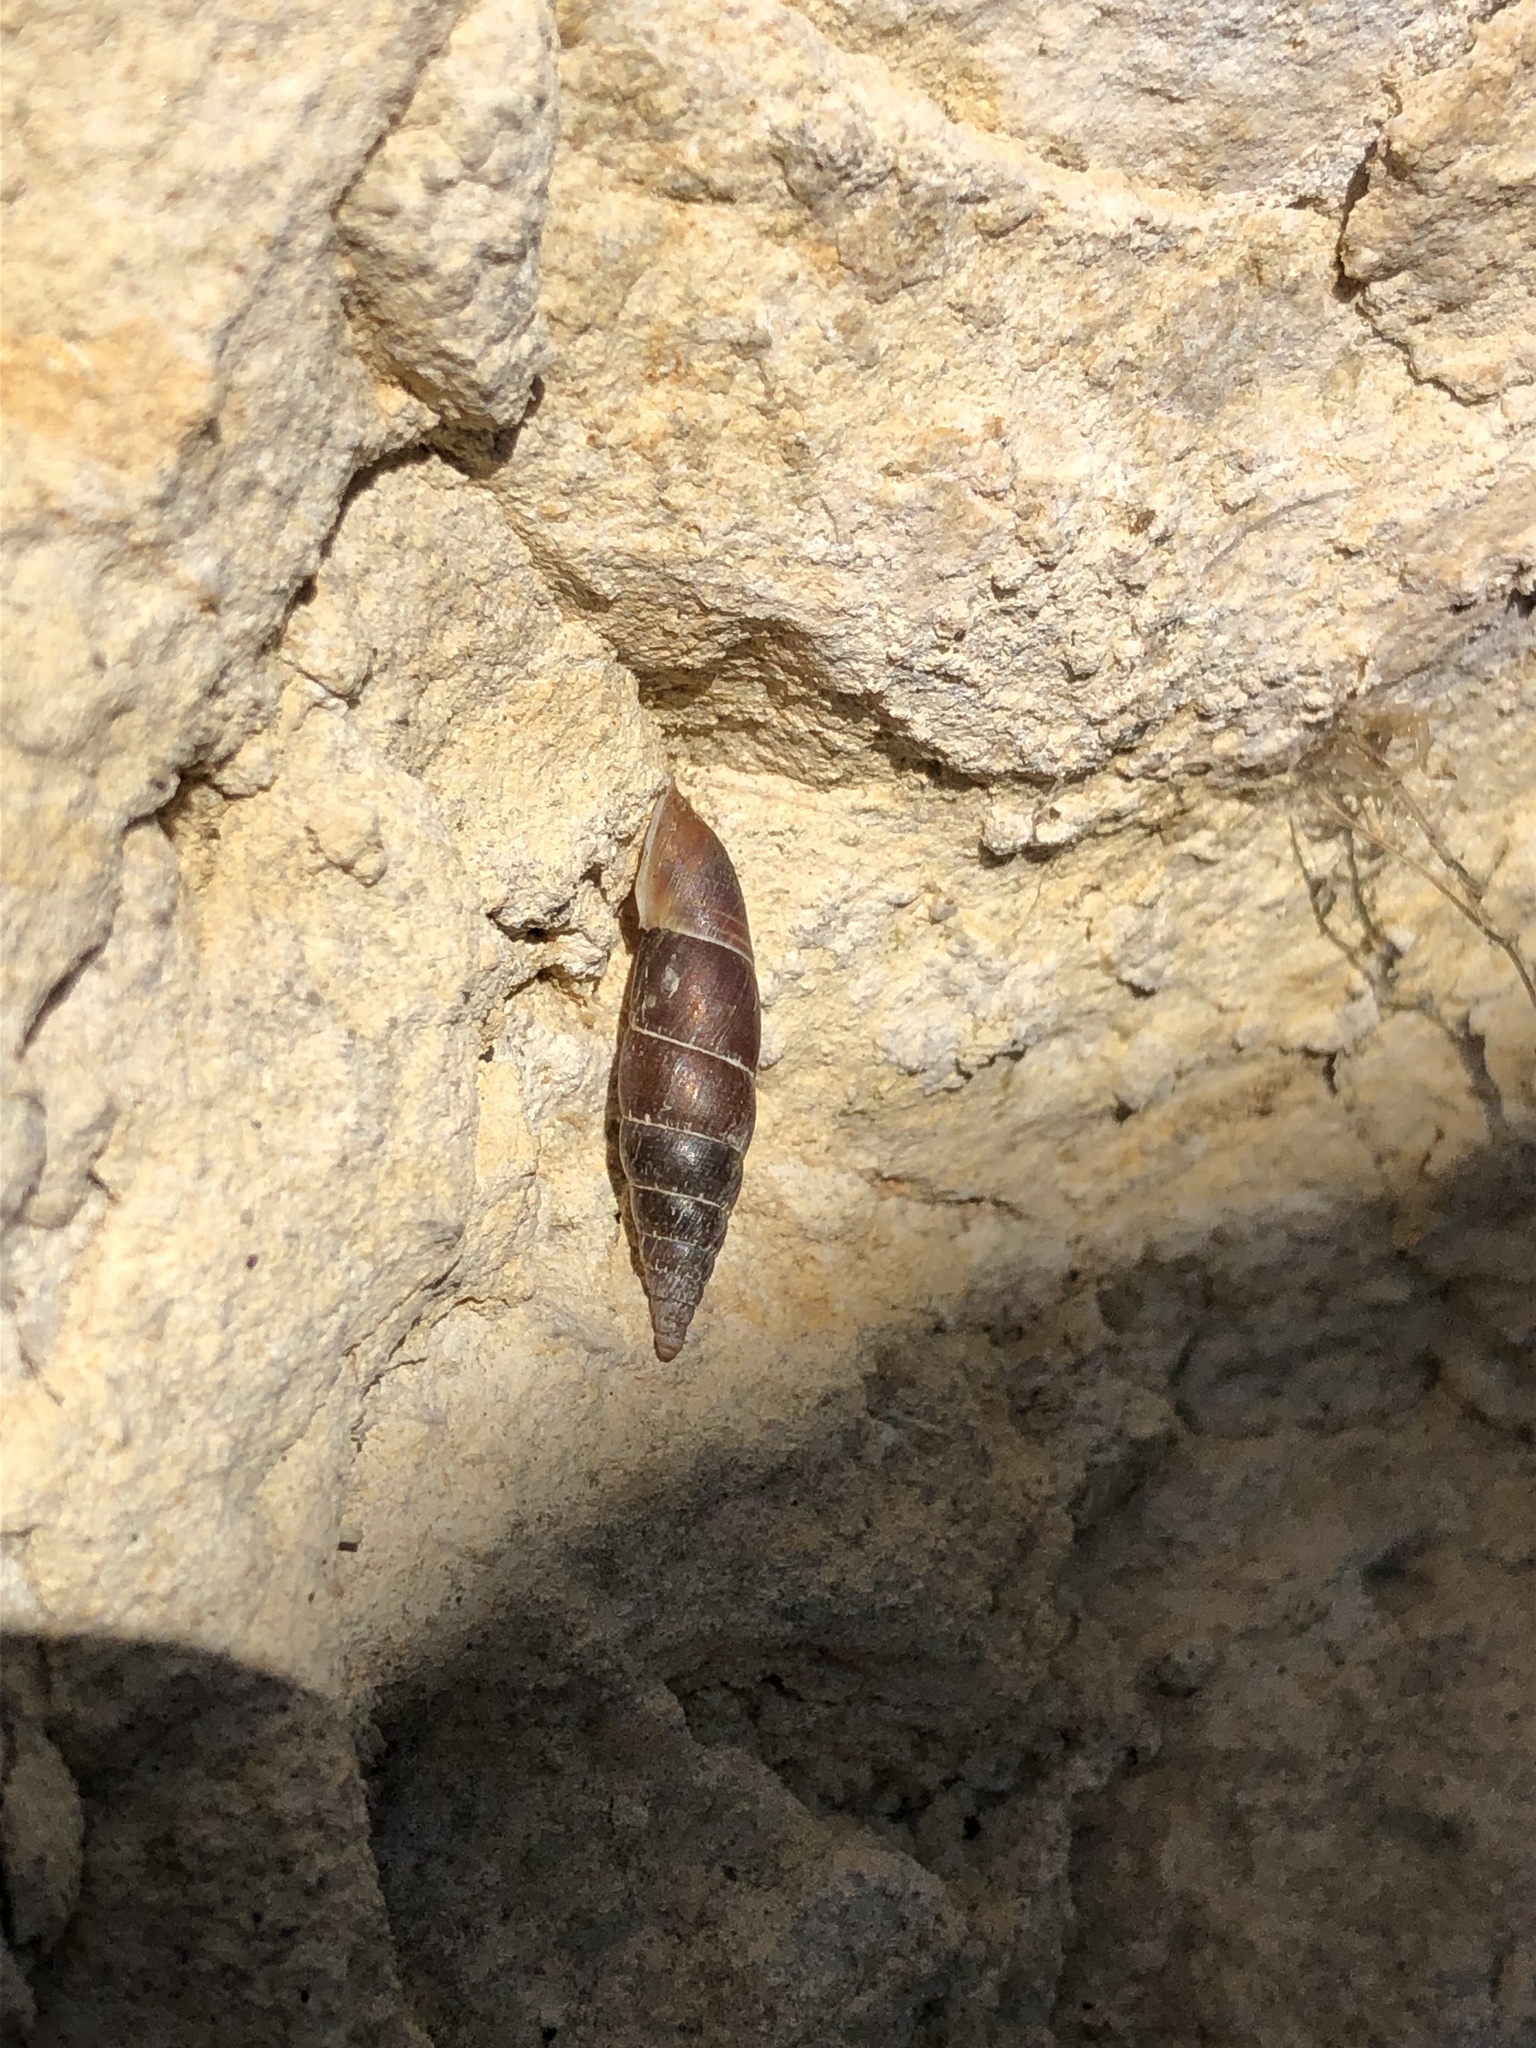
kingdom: Animalia
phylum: Mollusca
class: Gastropoda
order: Stylommatophora
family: Clausiliidae
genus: Charpentieria
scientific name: Charpentieria itala
